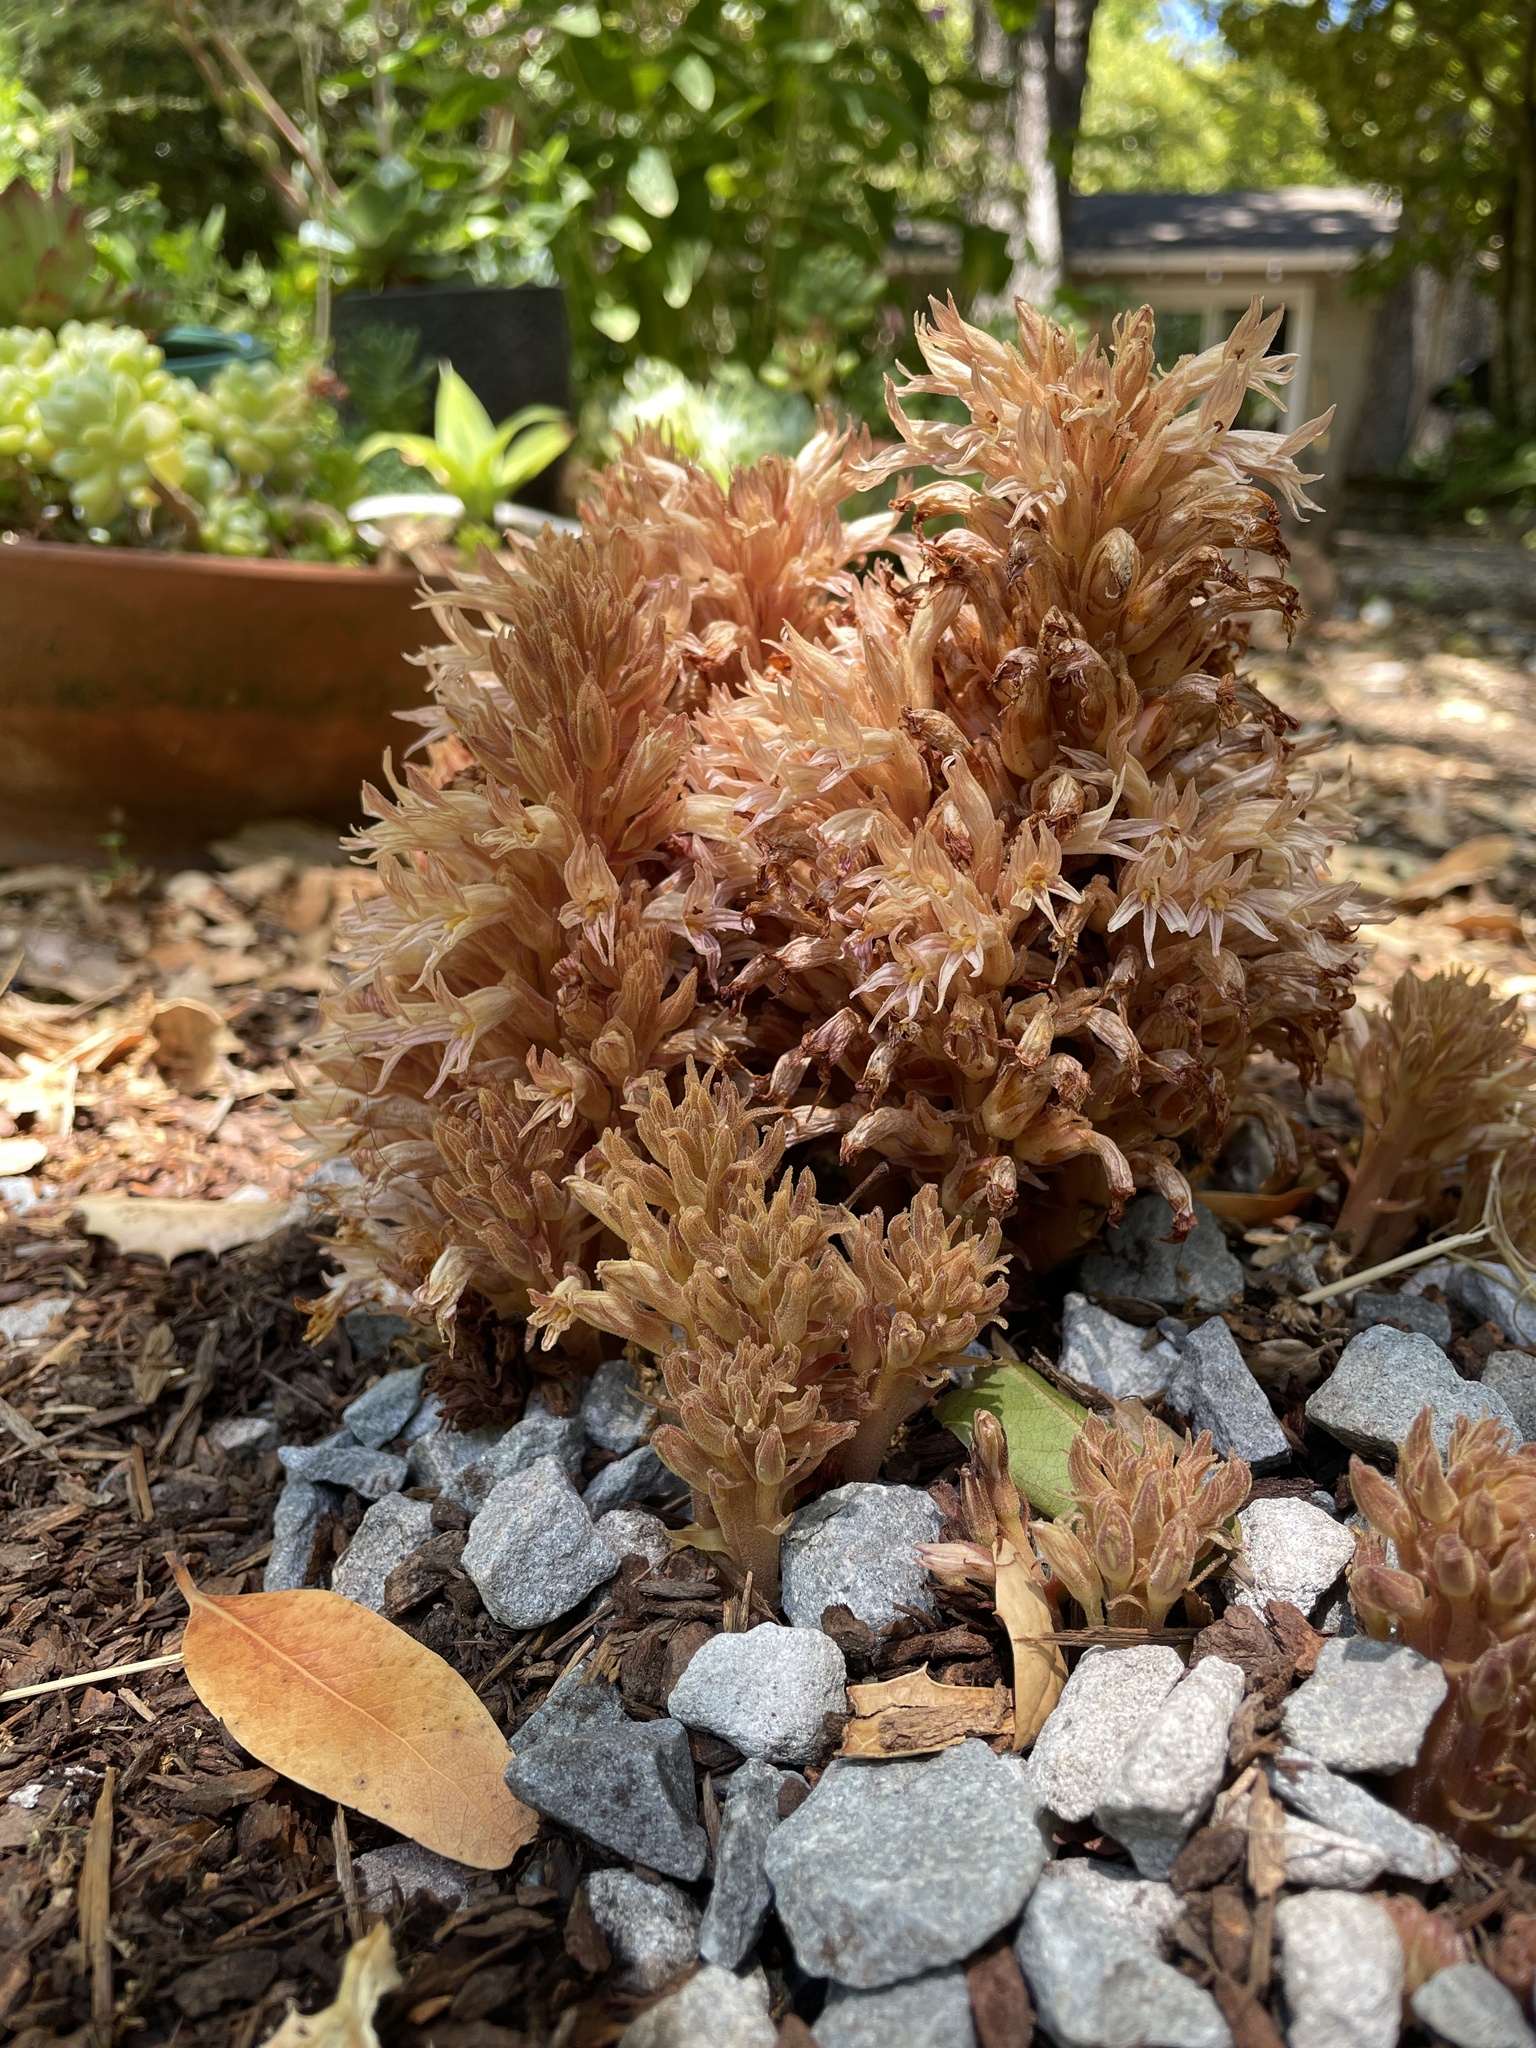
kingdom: Plantae
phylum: Tracheophyta
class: Magnoliopsida
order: Lamiales
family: Orobanchaceae
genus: Aphyllon
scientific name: Aphyllon vallicolum
